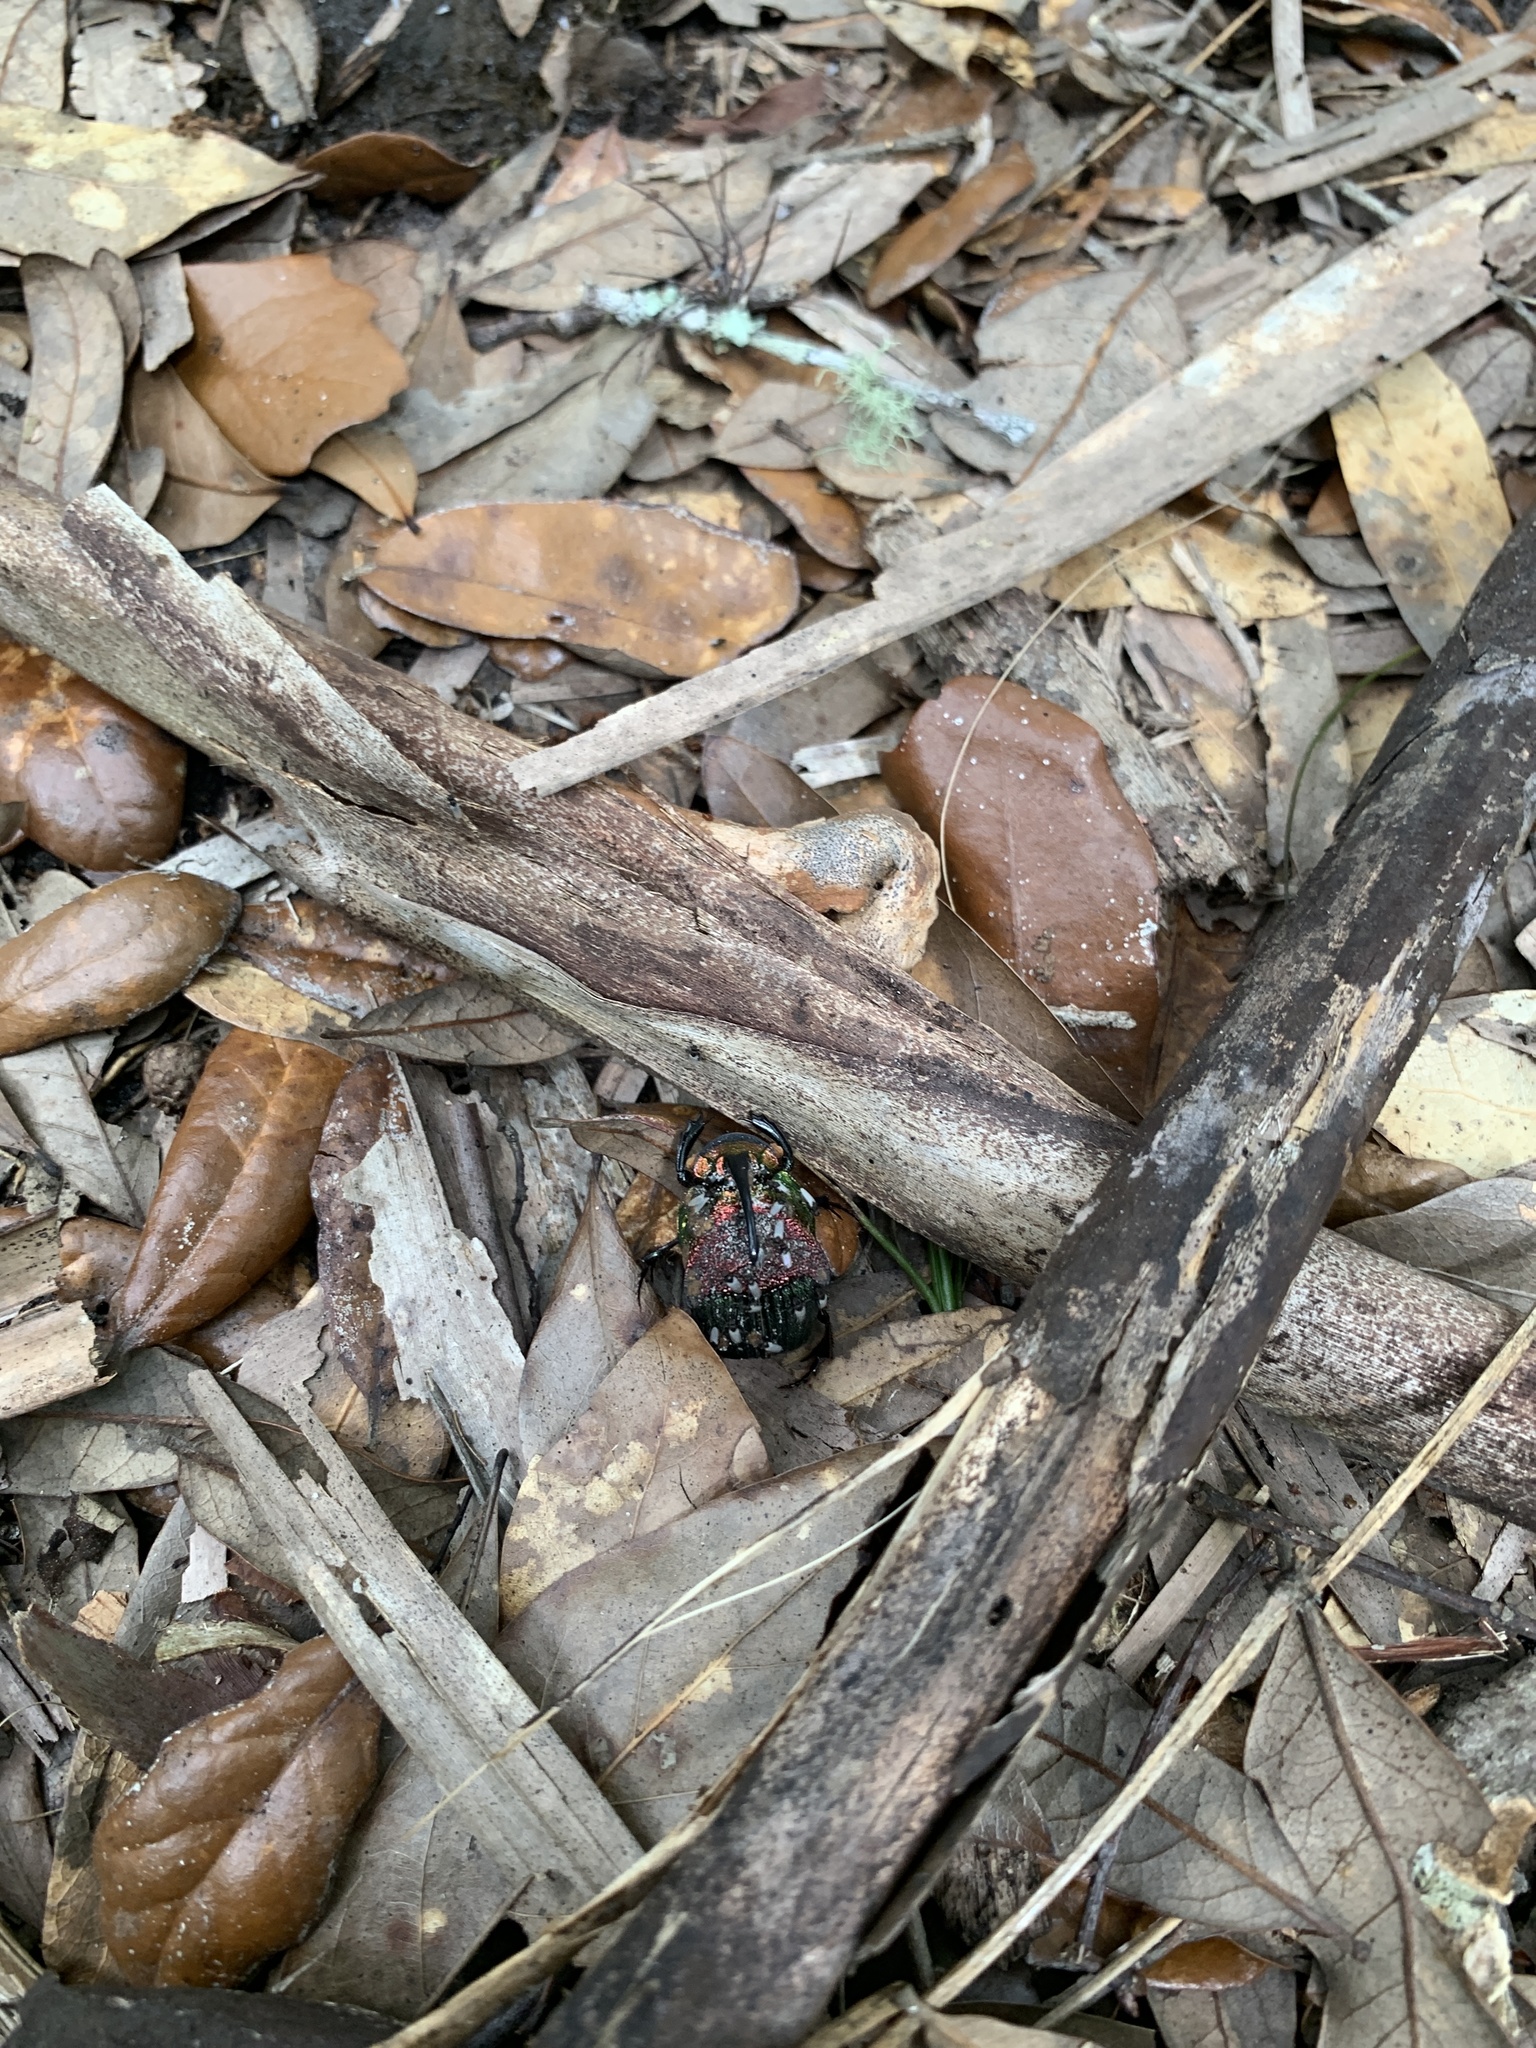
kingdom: Animalia
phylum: Arthropoda
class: Insecta
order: Coleoptera
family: Scarabaeidae
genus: Phanaeus
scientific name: Phanaeus vindex
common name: Rainbow scarab
